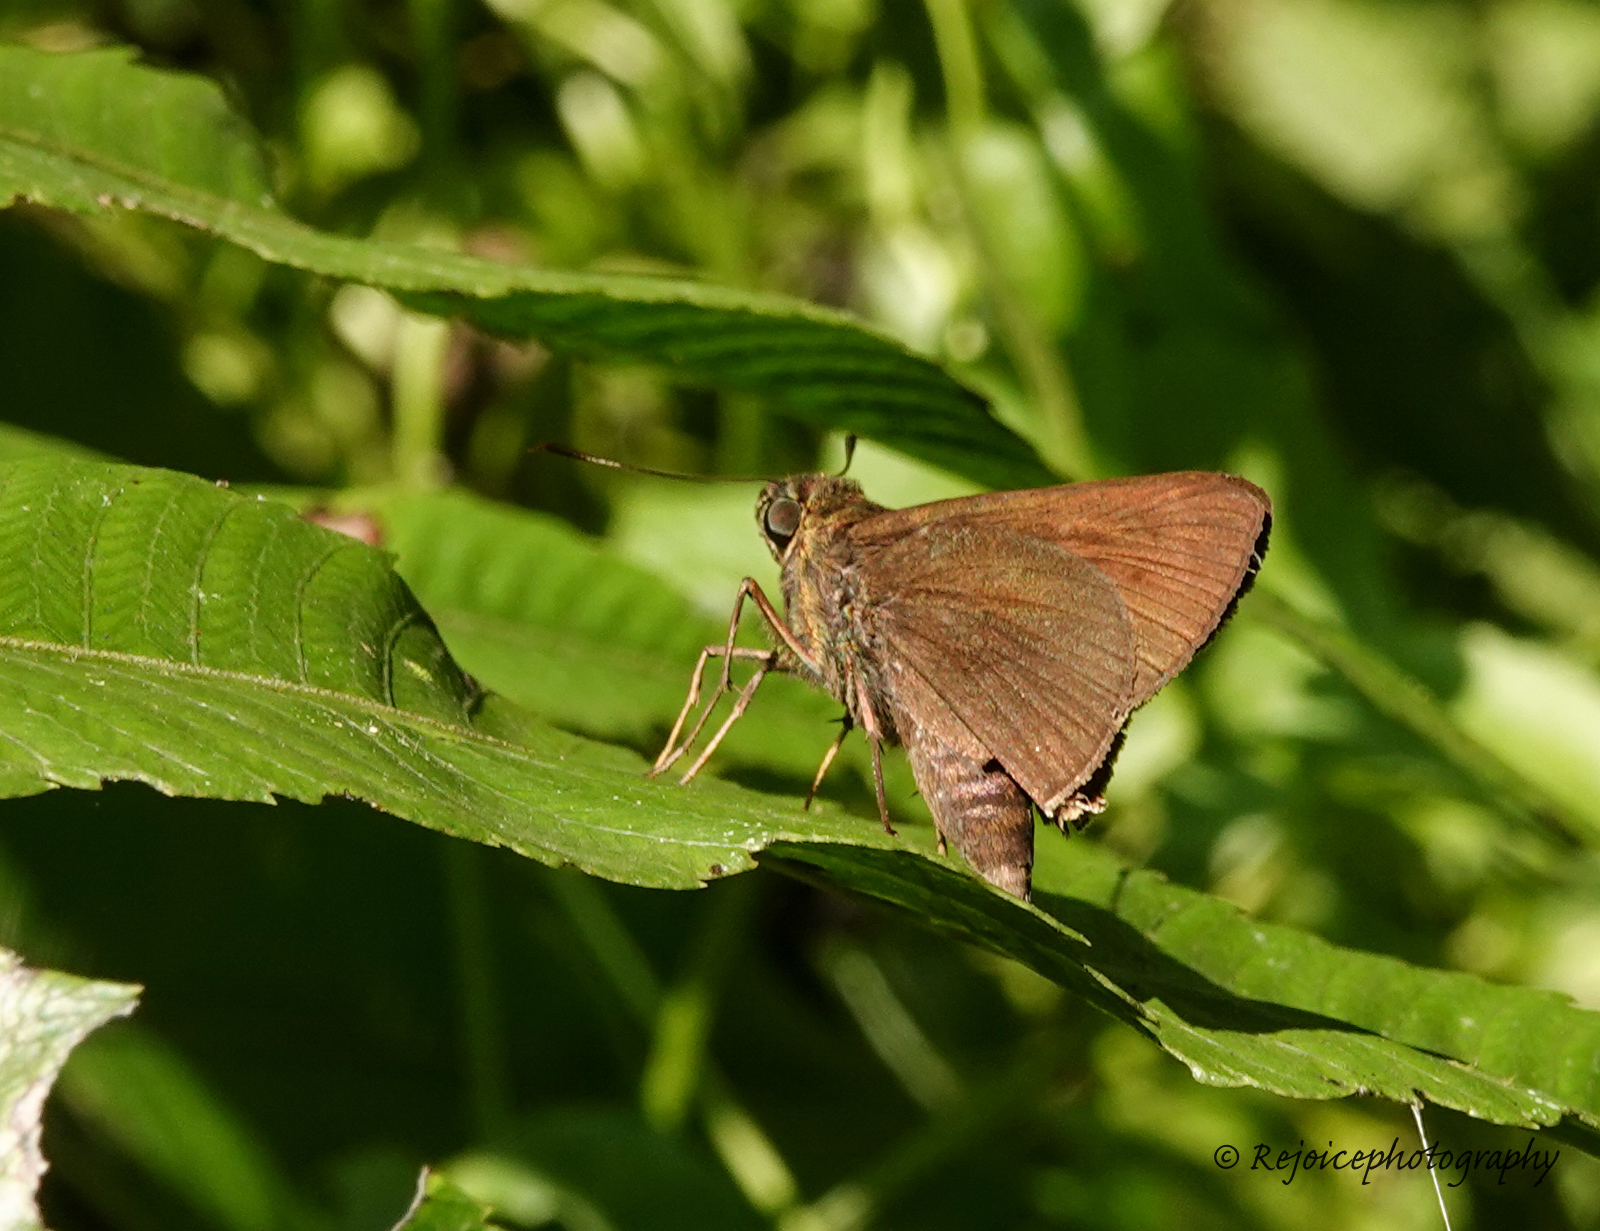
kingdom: Animalia
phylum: Arthropoda
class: Insecta
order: Lepidoptera
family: Hesperiidae
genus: Ancistroides
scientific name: Ancistroides nigrita
